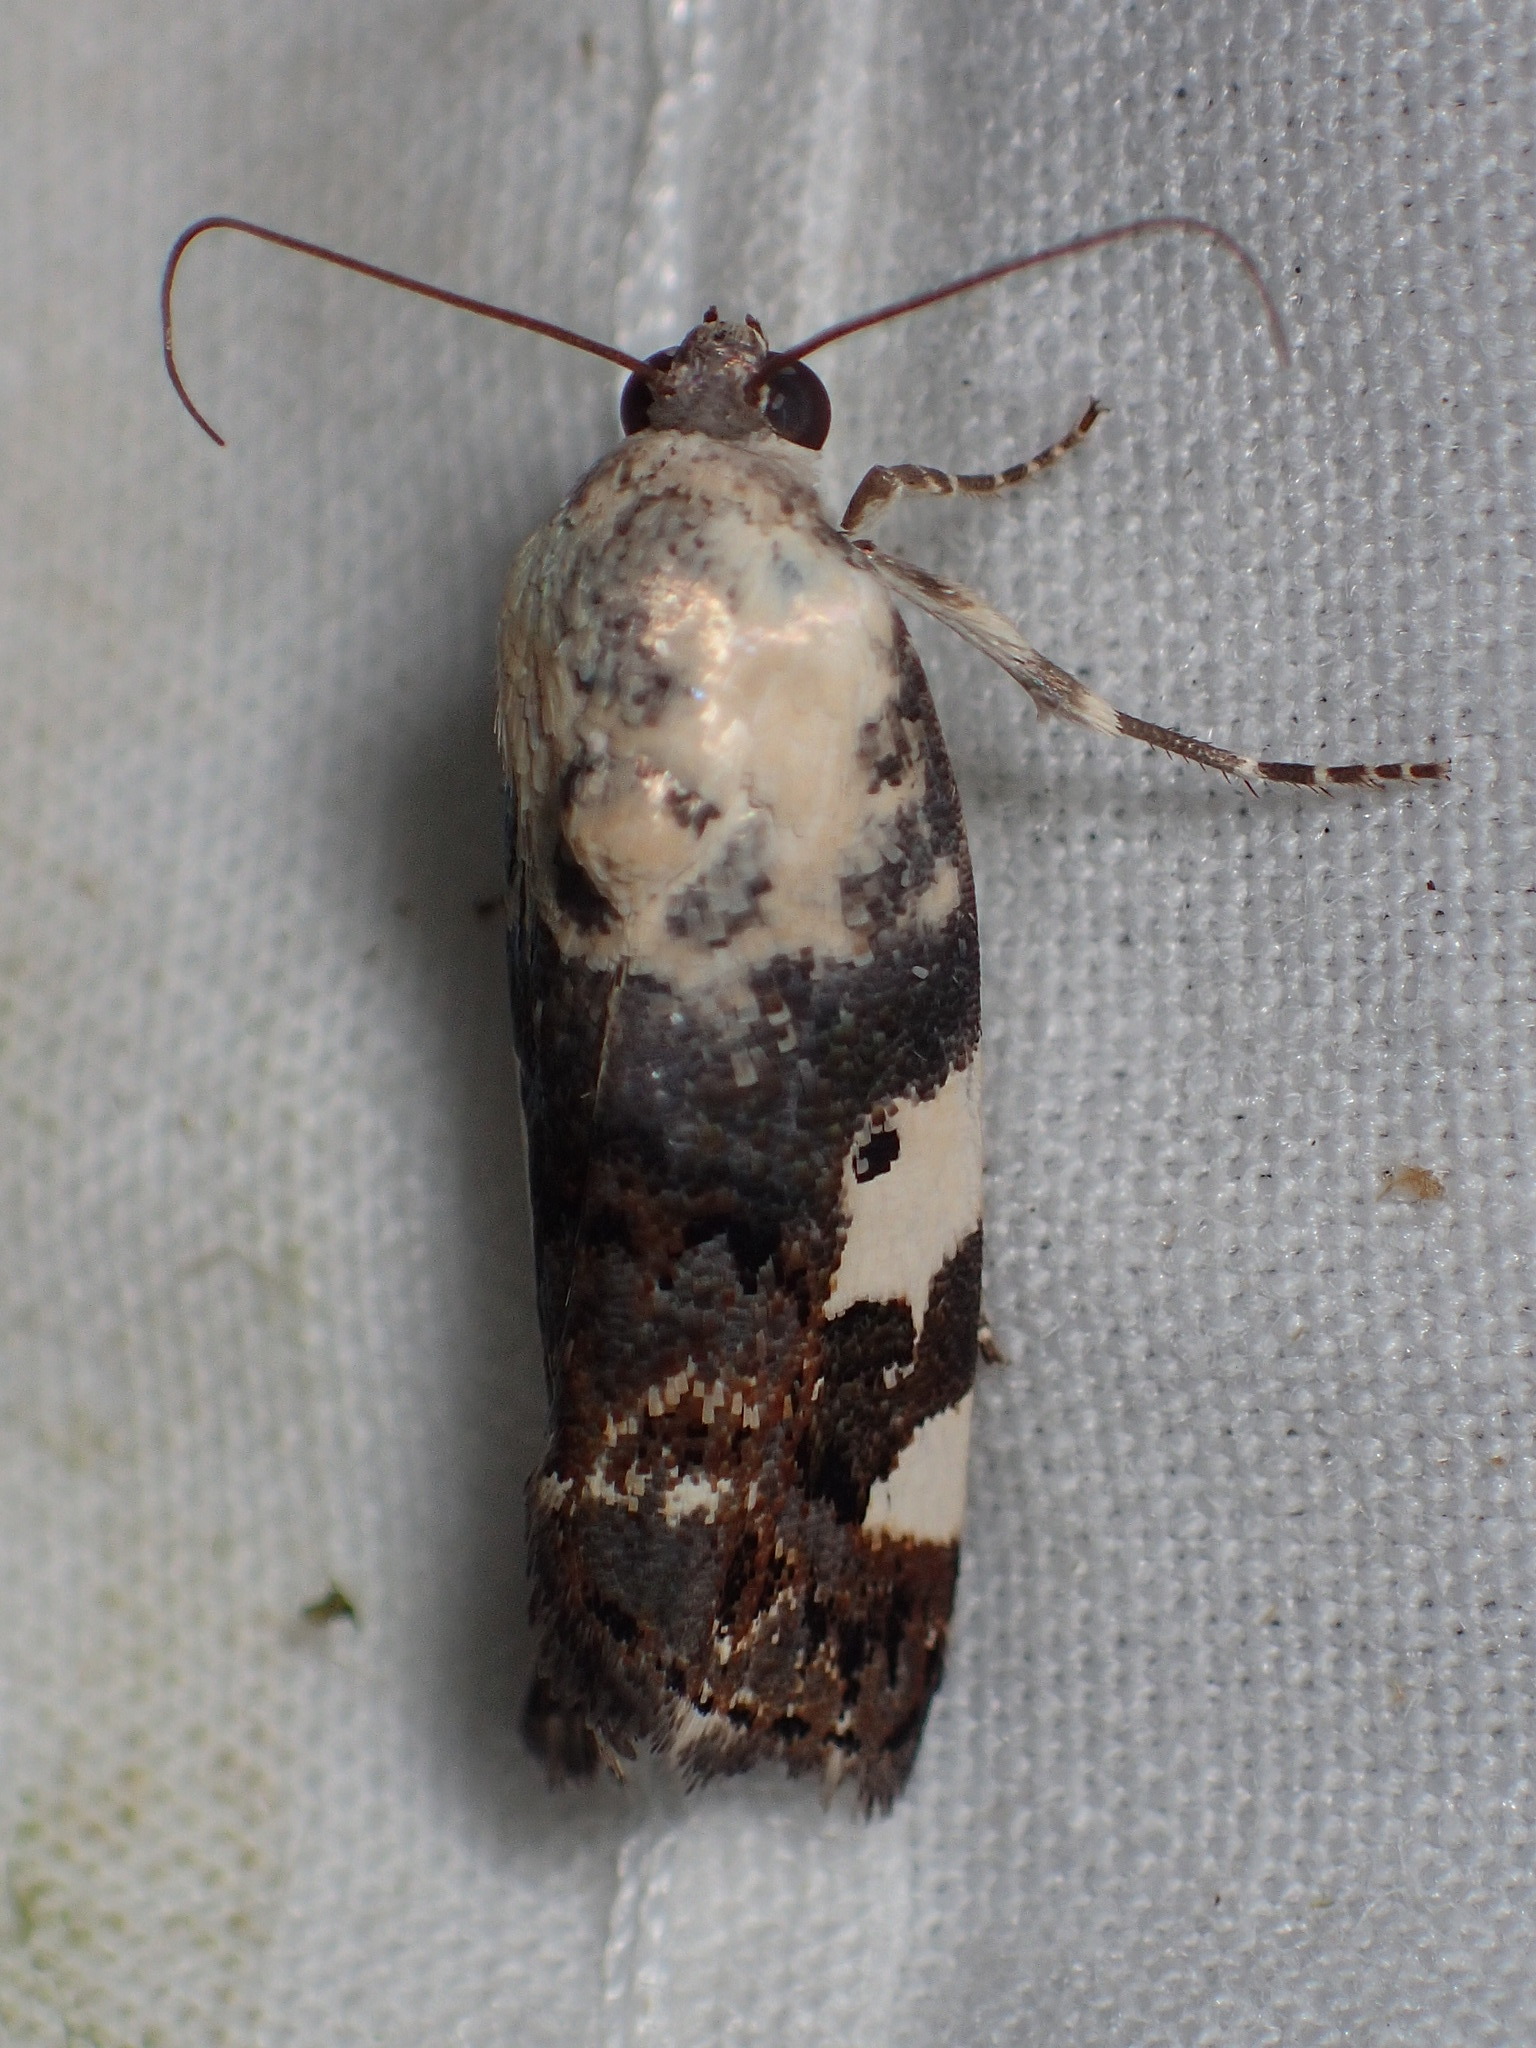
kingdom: Animalia
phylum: Arthropoda
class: Insecta
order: Lepidoptera
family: Noctuidae
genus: Acontia
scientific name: Acontia aprica
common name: Nun
